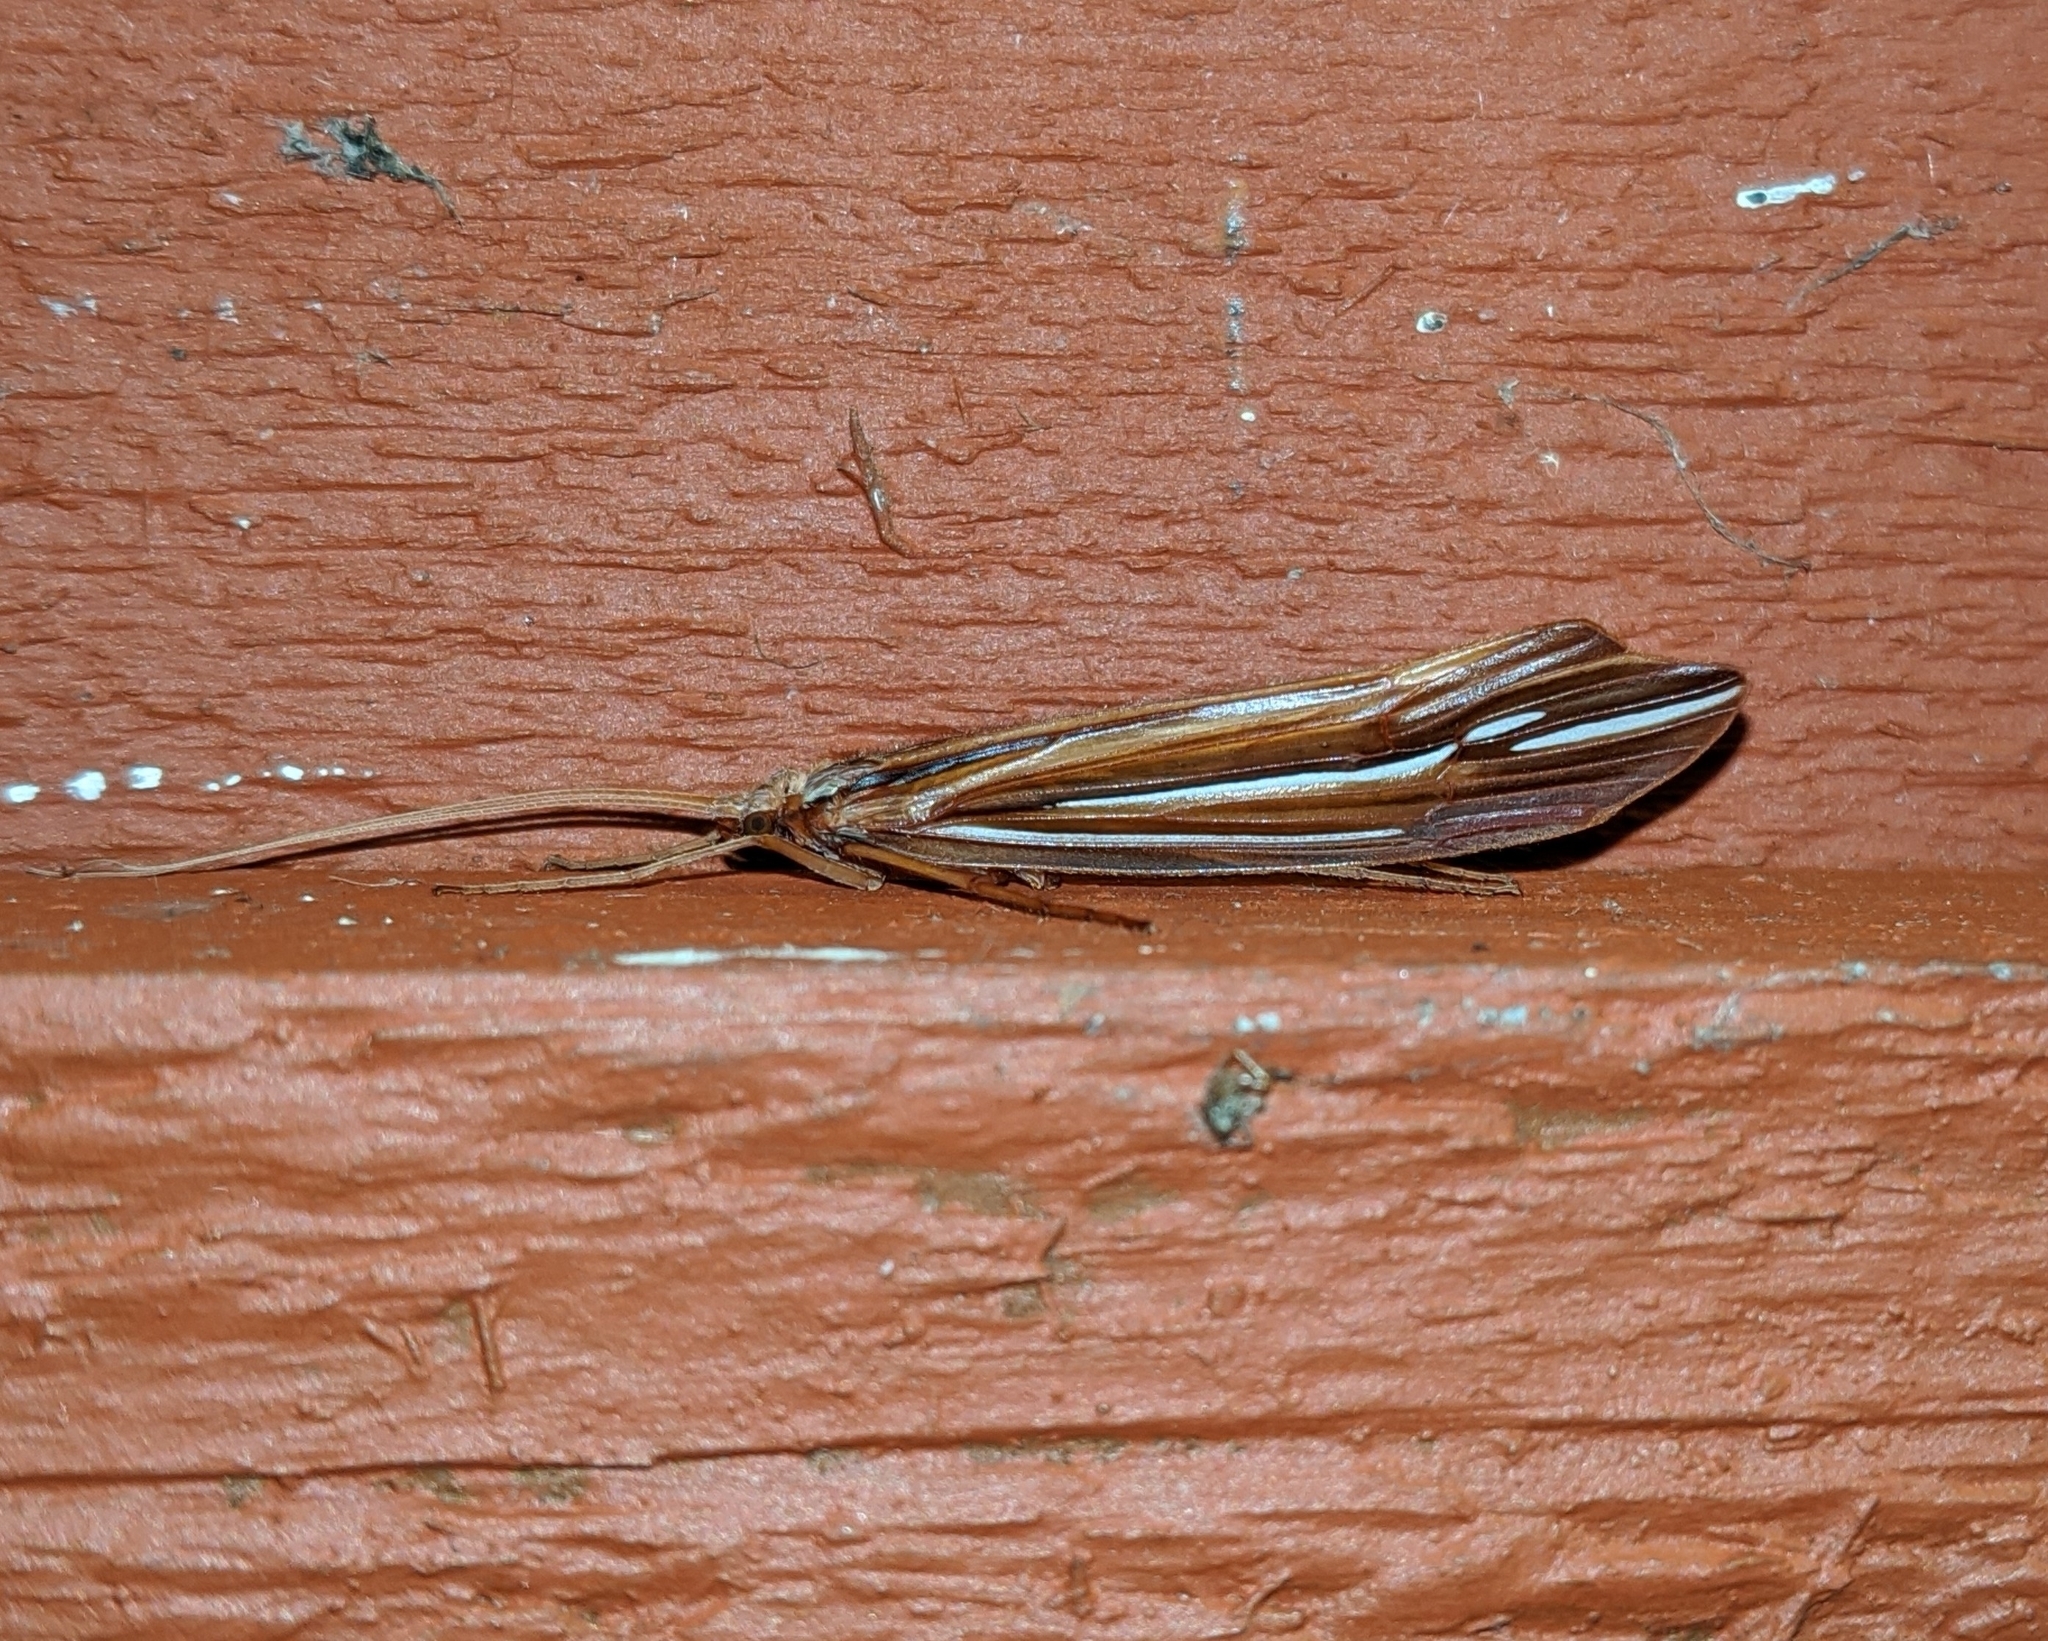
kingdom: Animalia
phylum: Arthropoda
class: Insecta
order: Trichoptera
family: Limnephilidae
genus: Psychoglypha
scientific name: Psychoglypha bella
